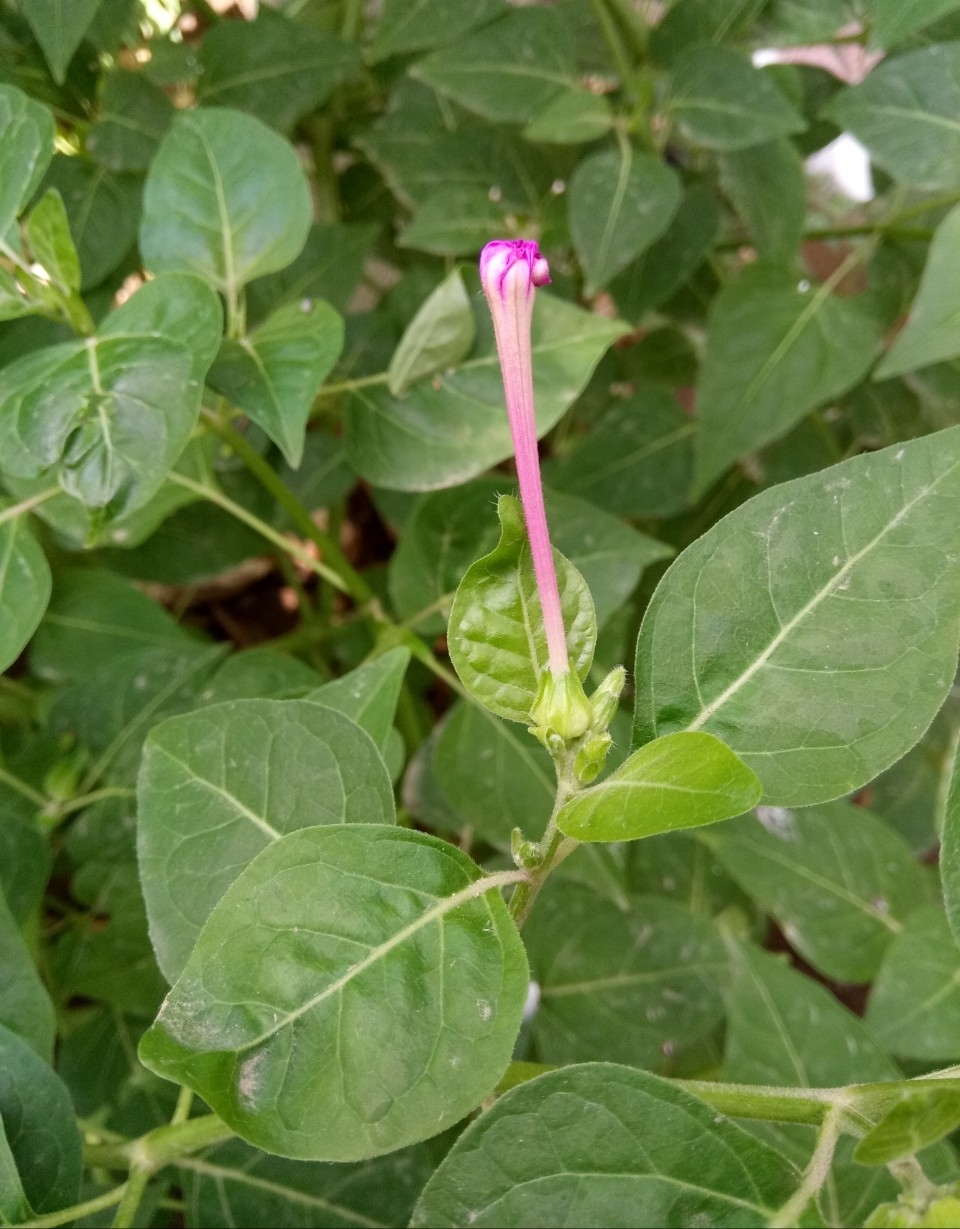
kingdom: Plantae
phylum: Tracheophyta
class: Magnoliopsida
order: Caryophyllales
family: Nyctaginaceae
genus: Mirabilis
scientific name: Mirabilis jalapa
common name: Marvel-of-peru
